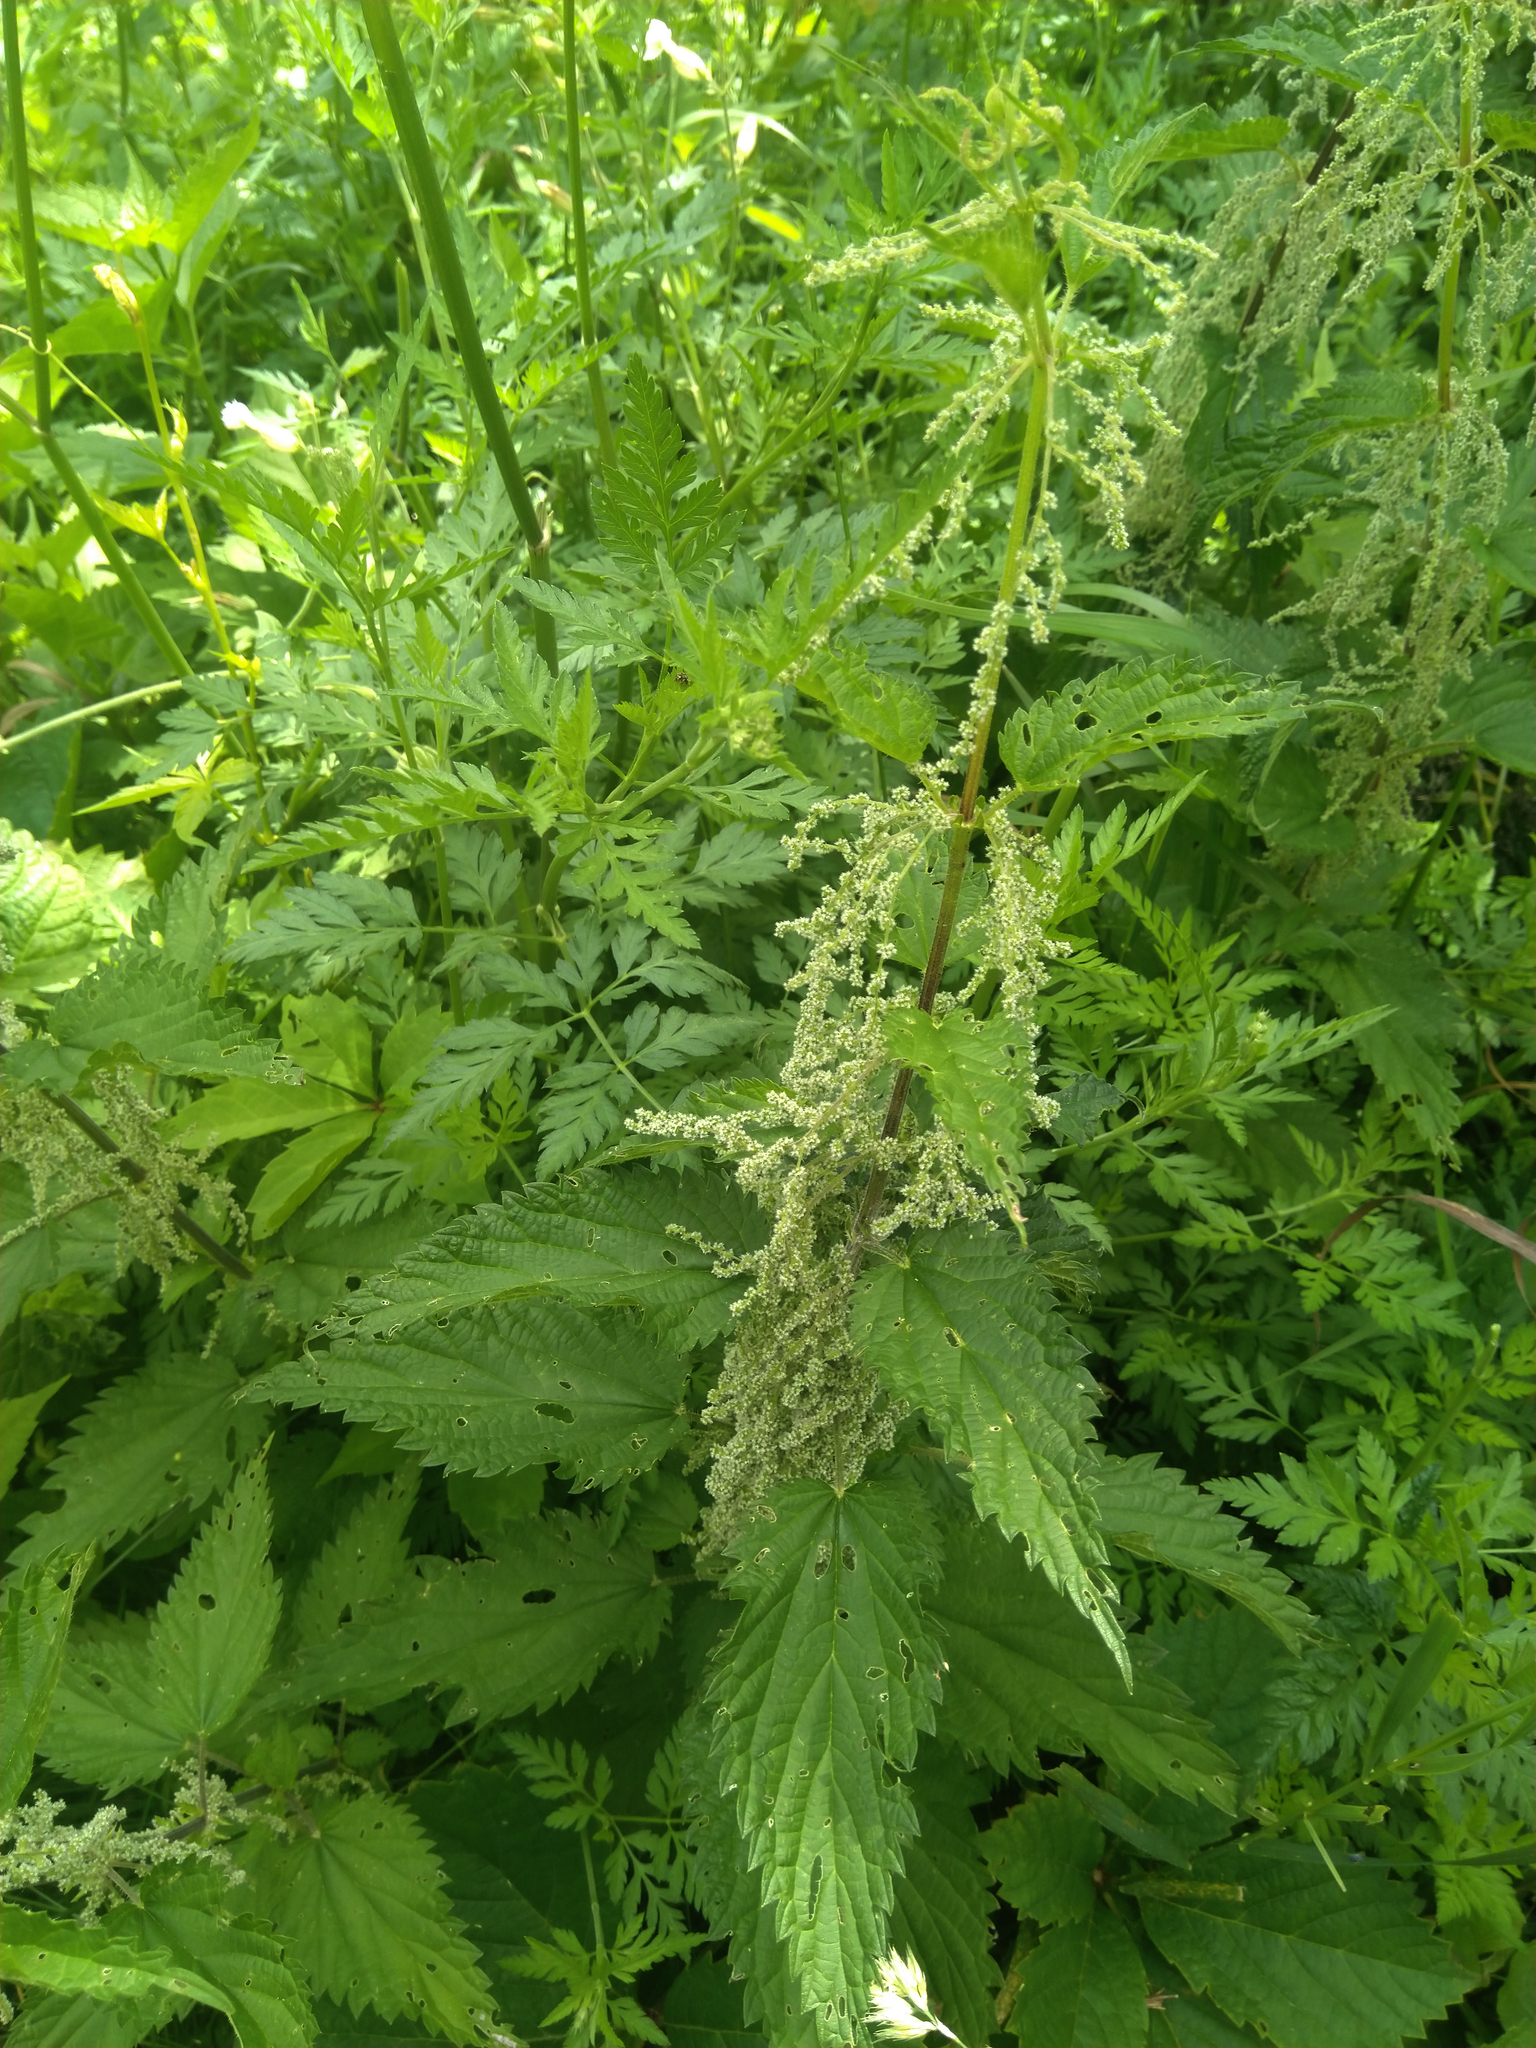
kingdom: Plantae
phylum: Tracheophyta
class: Magnoliopsida
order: Rosales
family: Urticaceae
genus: Urtica
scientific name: Urtica dioica
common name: Common nettle
